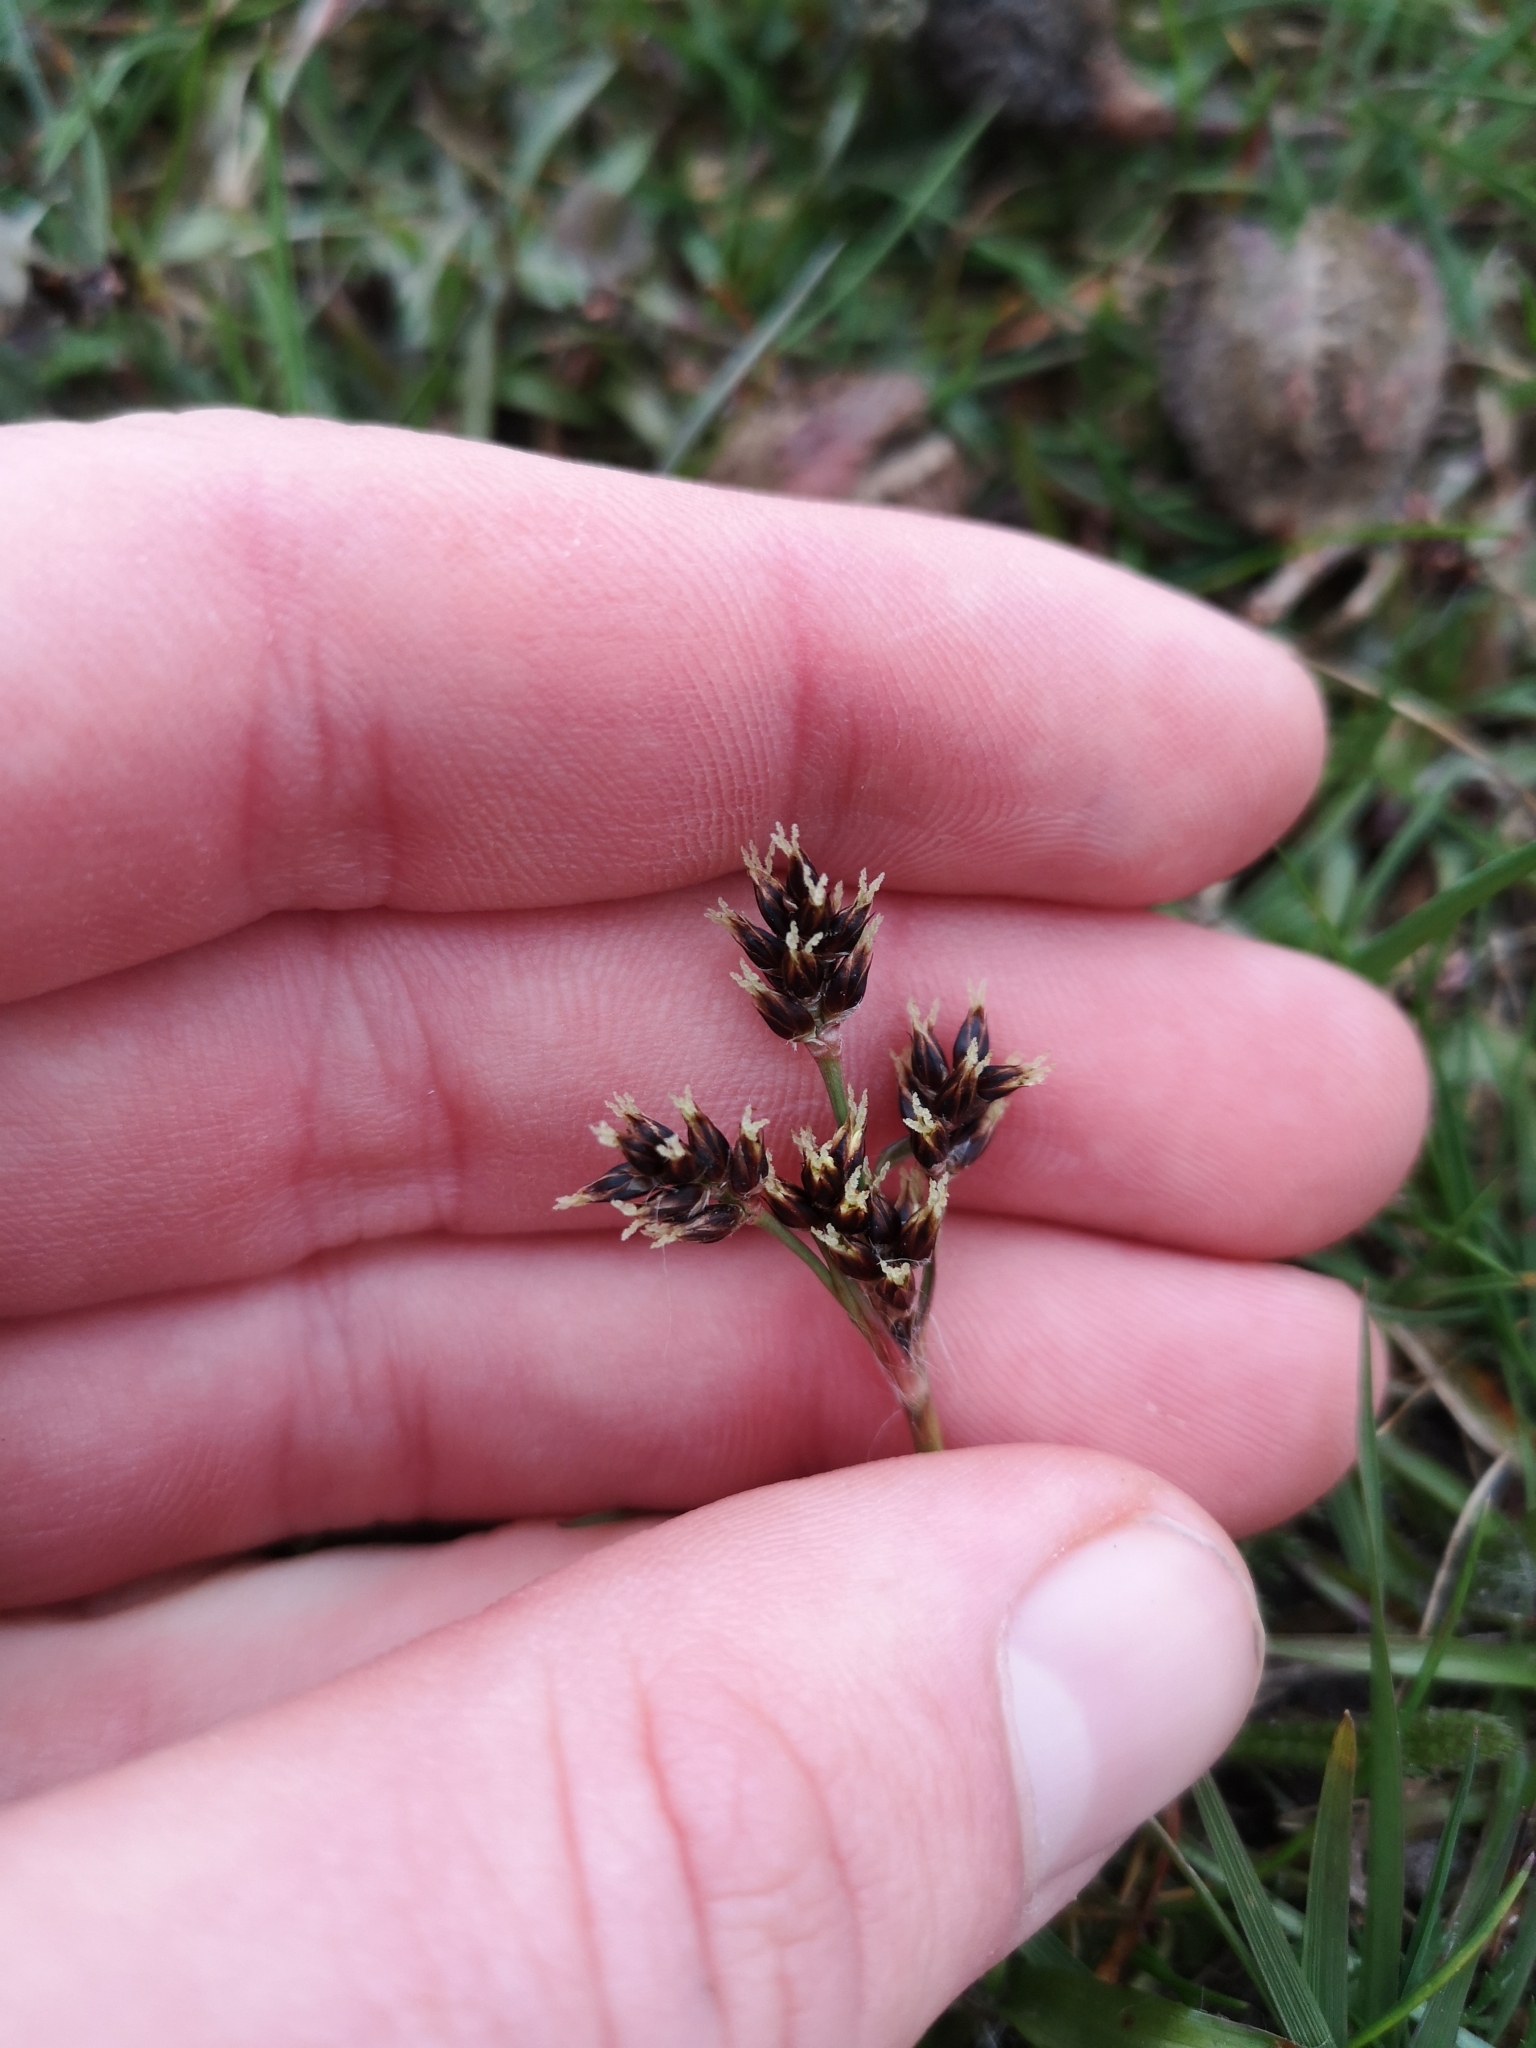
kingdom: Plantae
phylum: Tracheophyta
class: Liliopsida
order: Poales
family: Juncaceae
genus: Luzula
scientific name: Luzula campestris
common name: Field wood-rush
